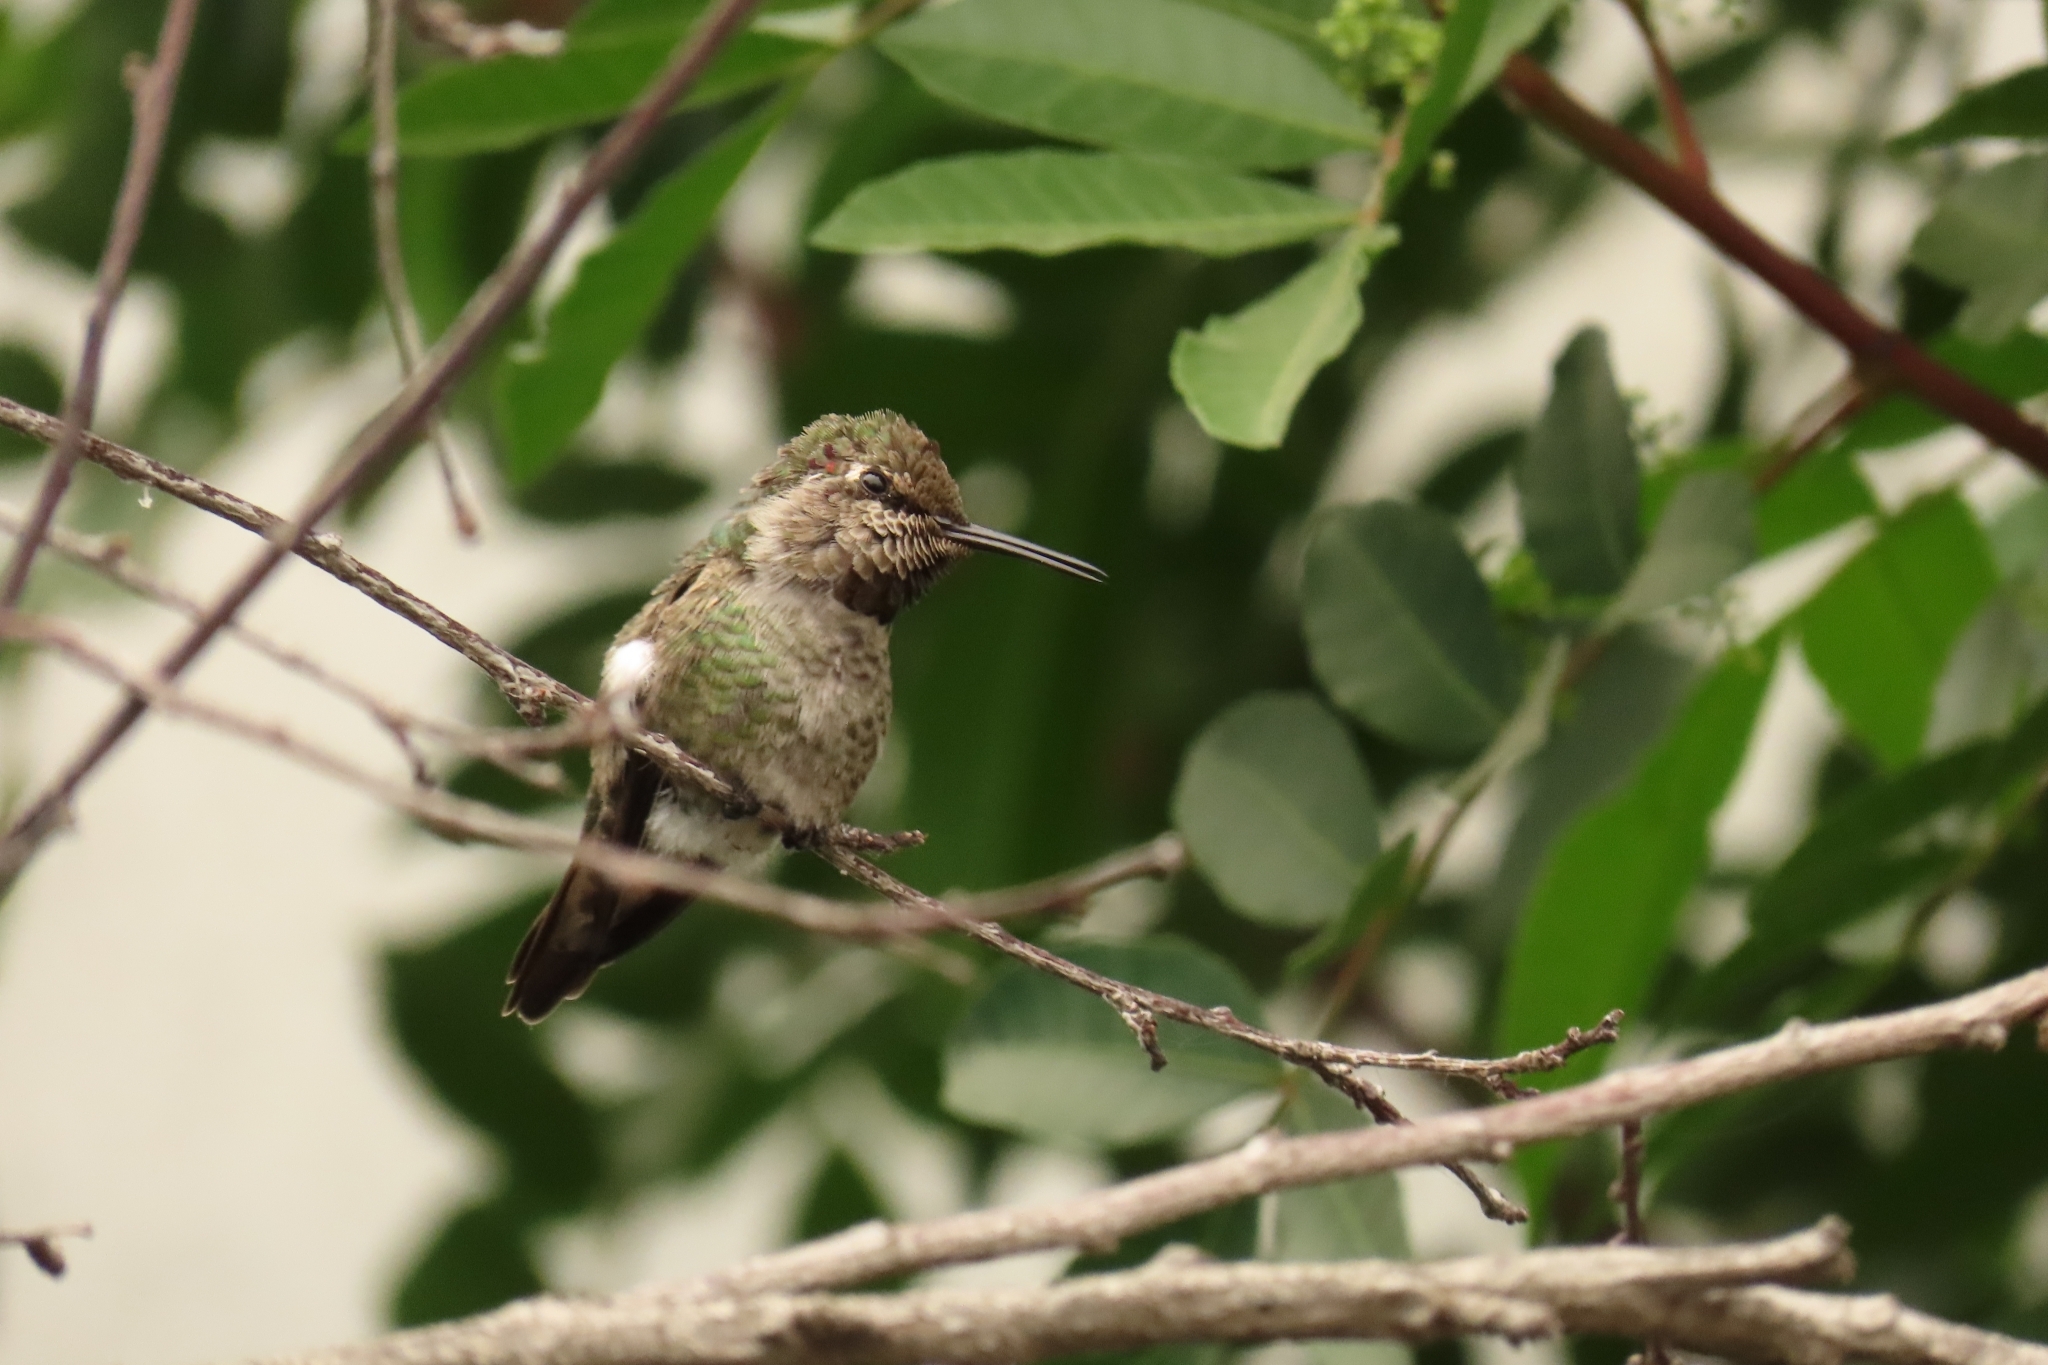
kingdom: Animalia
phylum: Chordata
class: Aves
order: Apodiformes
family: Trochilidae
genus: Calypte
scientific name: Calypte anna
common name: Anna's hummingbird
